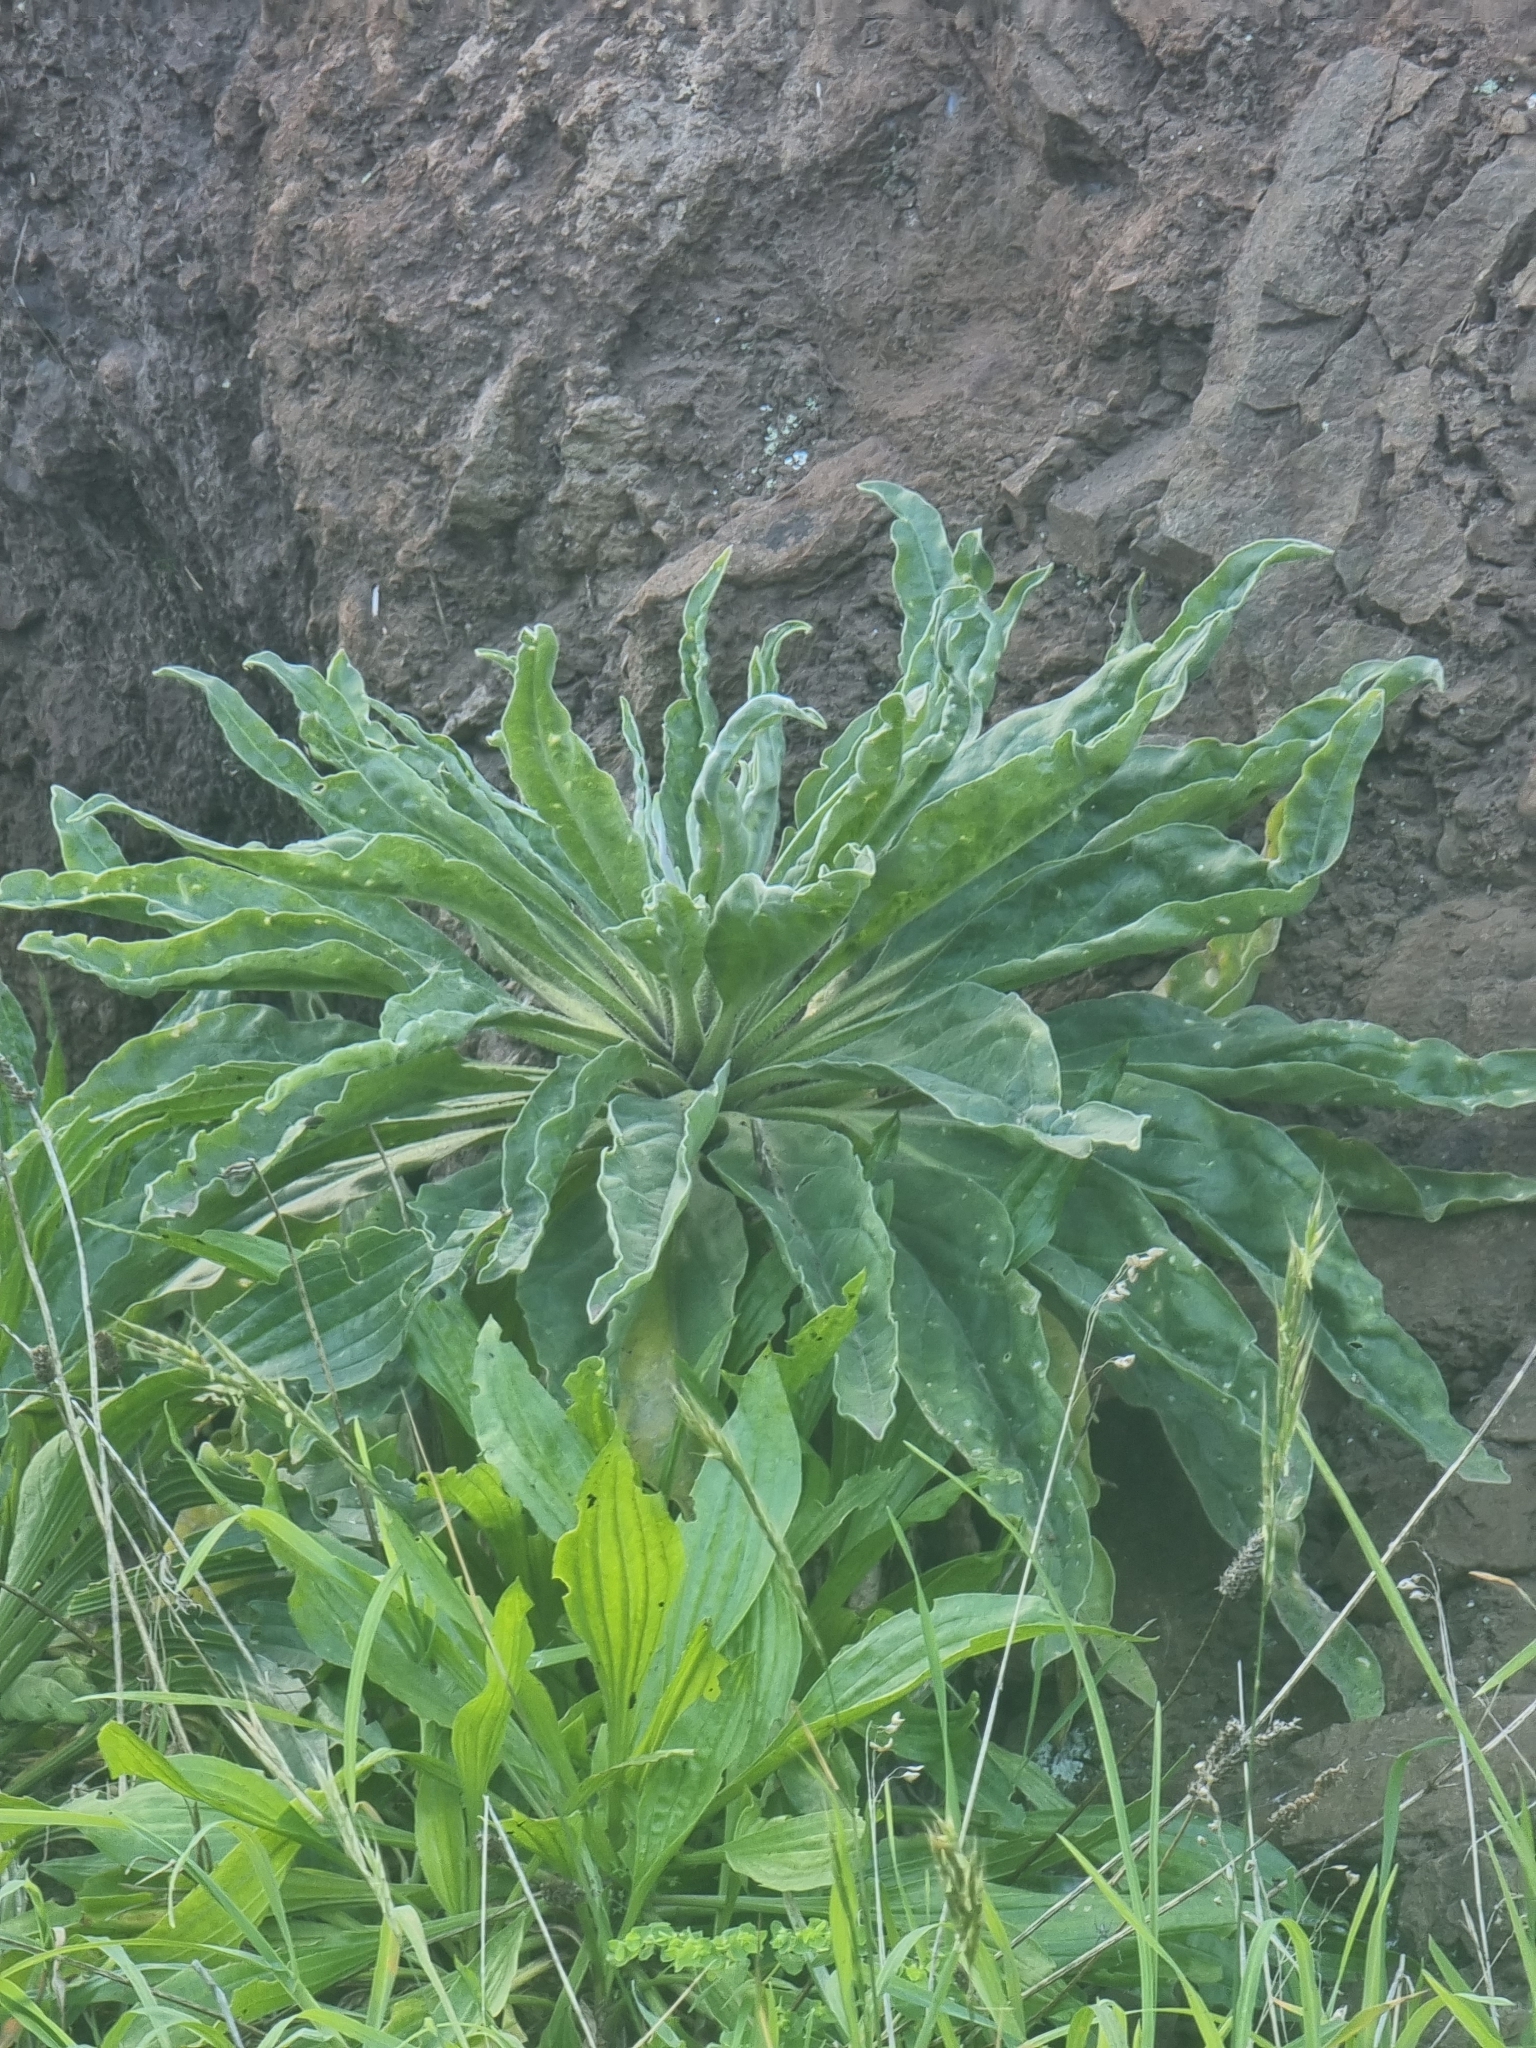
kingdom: Plantae
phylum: Tracheophyta
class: Magnoliopsida
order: Brassicales
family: Brassicaceae
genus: Matthiola
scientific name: Matthiola maderensis
